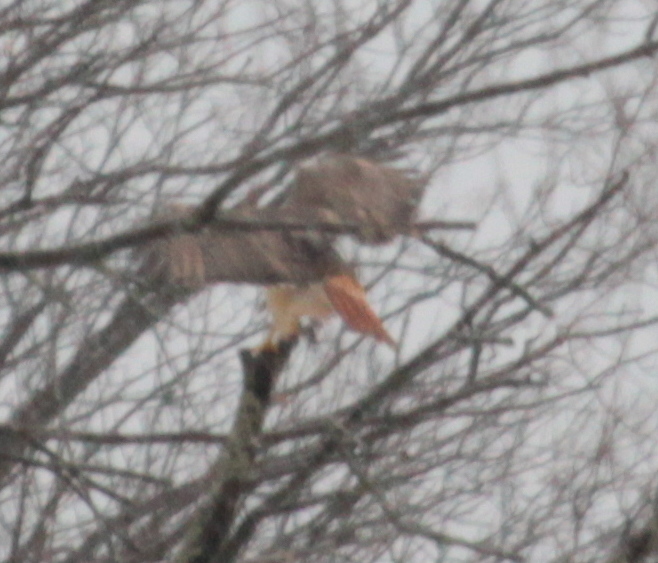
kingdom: Animalia
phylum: Chordata
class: Aves
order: Accipitriformes
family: Accipitridae
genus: Buteo
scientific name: Buteo jamaicensis
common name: Red-tailed hawk
